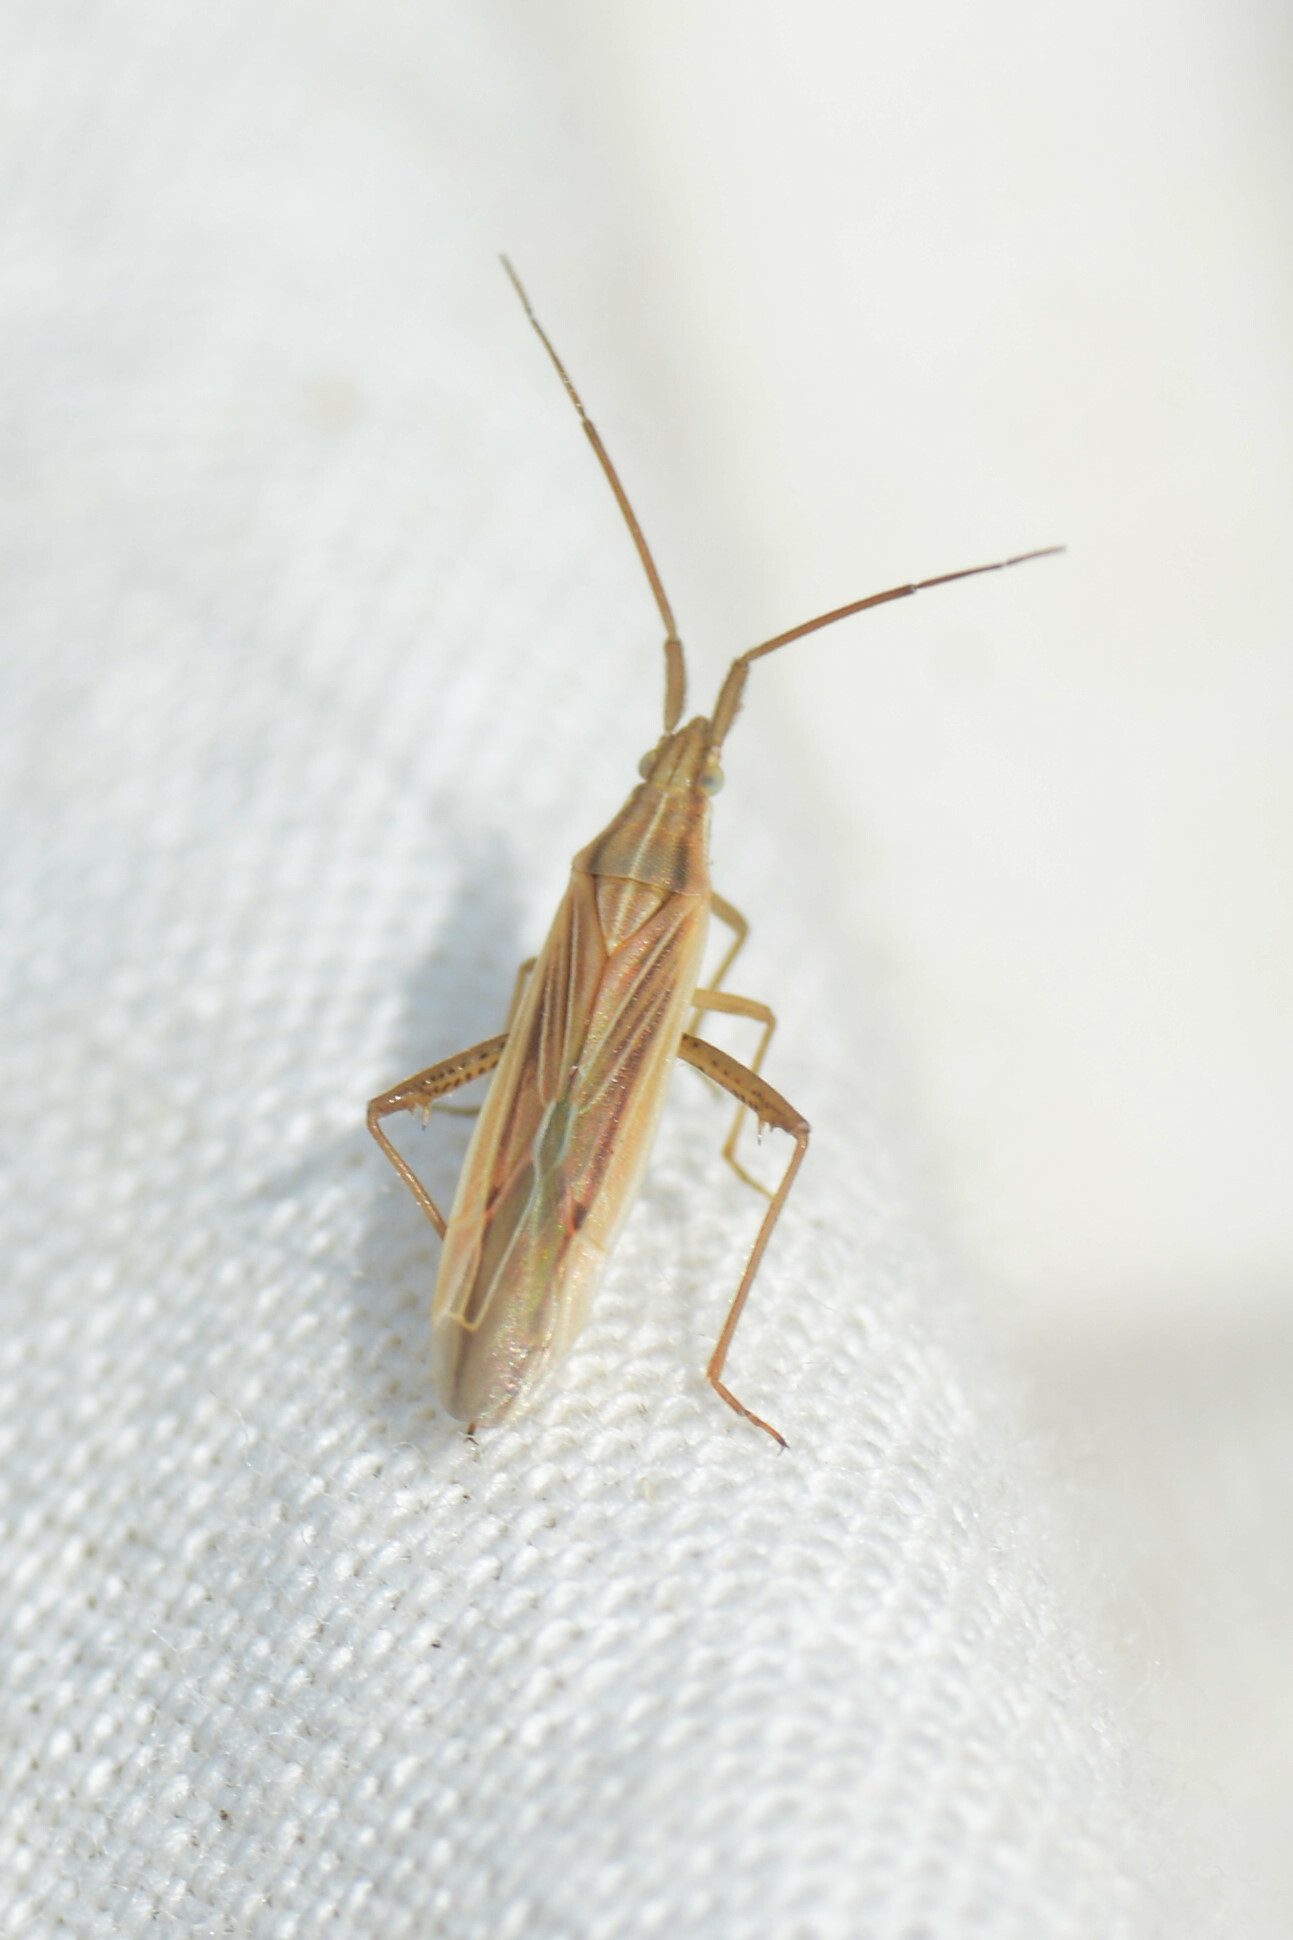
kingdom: Animalia
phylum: Arthropoda
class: Insecta
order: Hemiptera
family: Miridae
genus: Stenodema
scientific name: Stenodema calcarata
